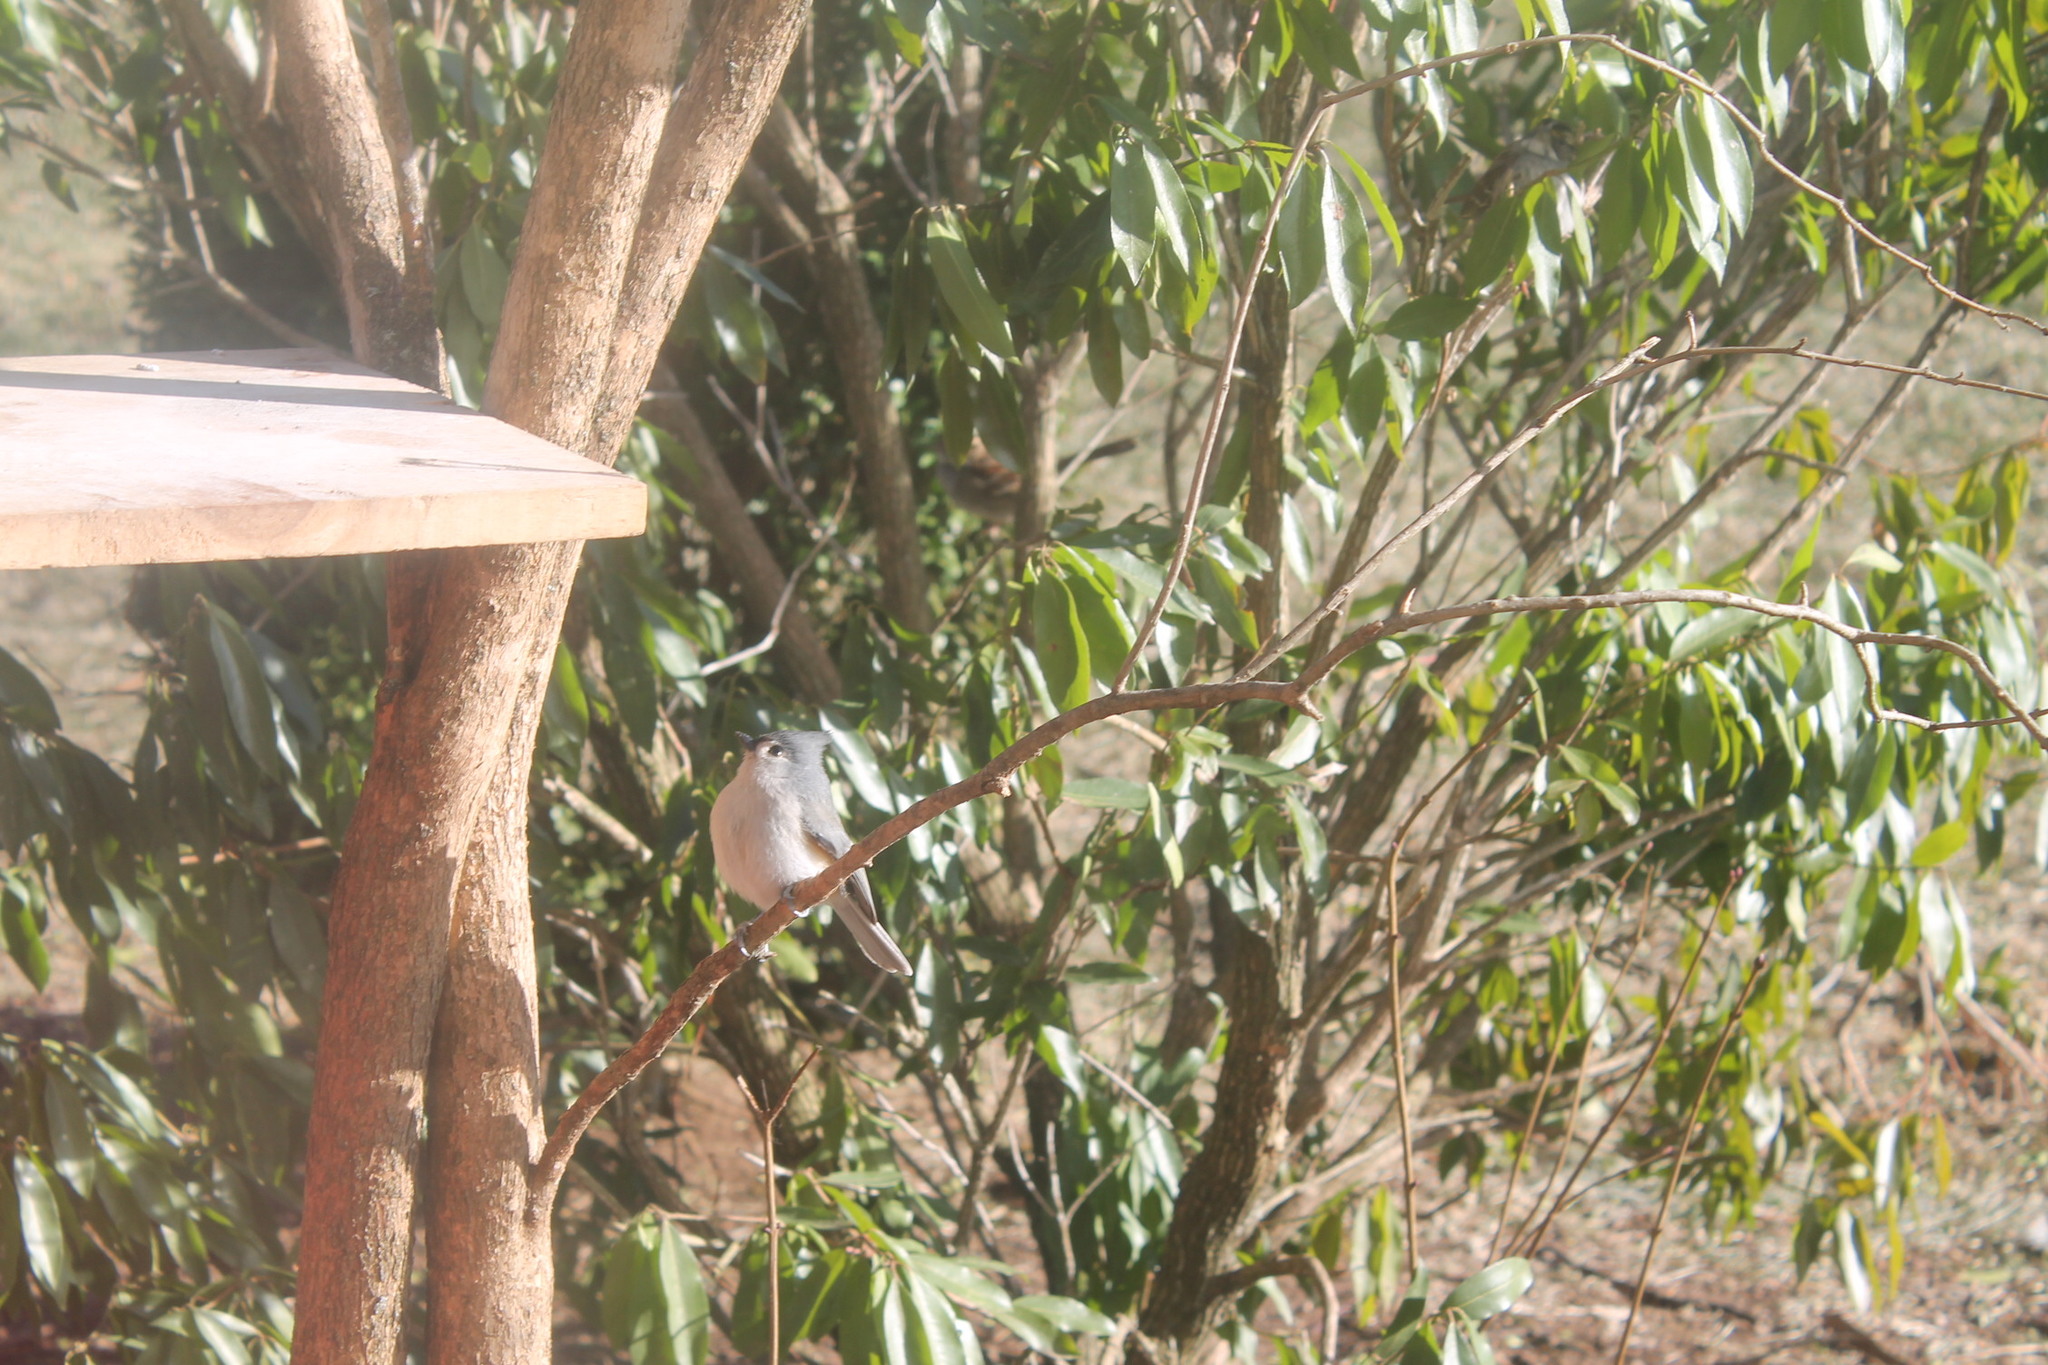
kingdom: Animalia
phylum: Chordata
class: Aves
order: Passeriformes
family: Paridae
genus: Baeolophus
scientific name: Baeolophus bicolor
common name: Tufted titmouse
